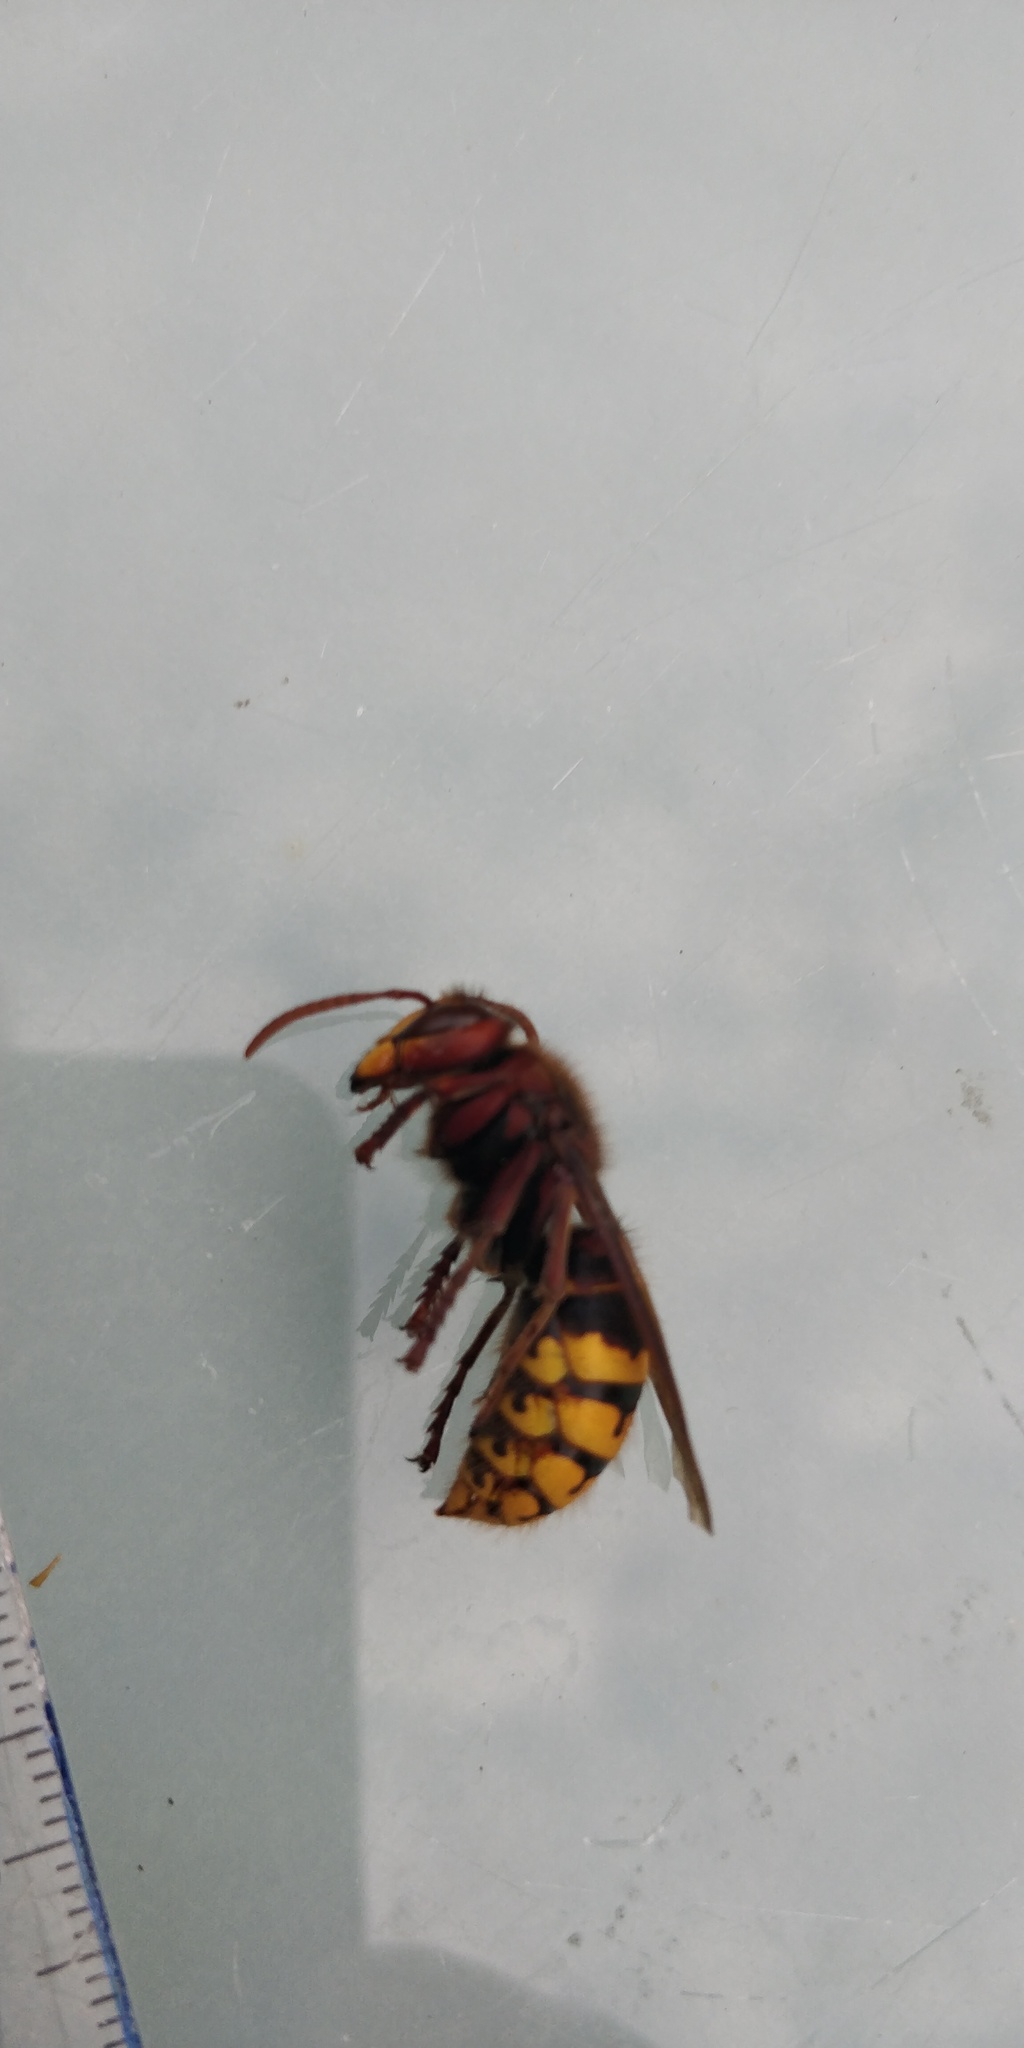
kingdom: Animalia
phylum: Arthropoda
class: Insecta
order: Hymenoptera
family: Vespidae
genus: Vespa
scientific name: Vespa crabro
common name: Hornet
